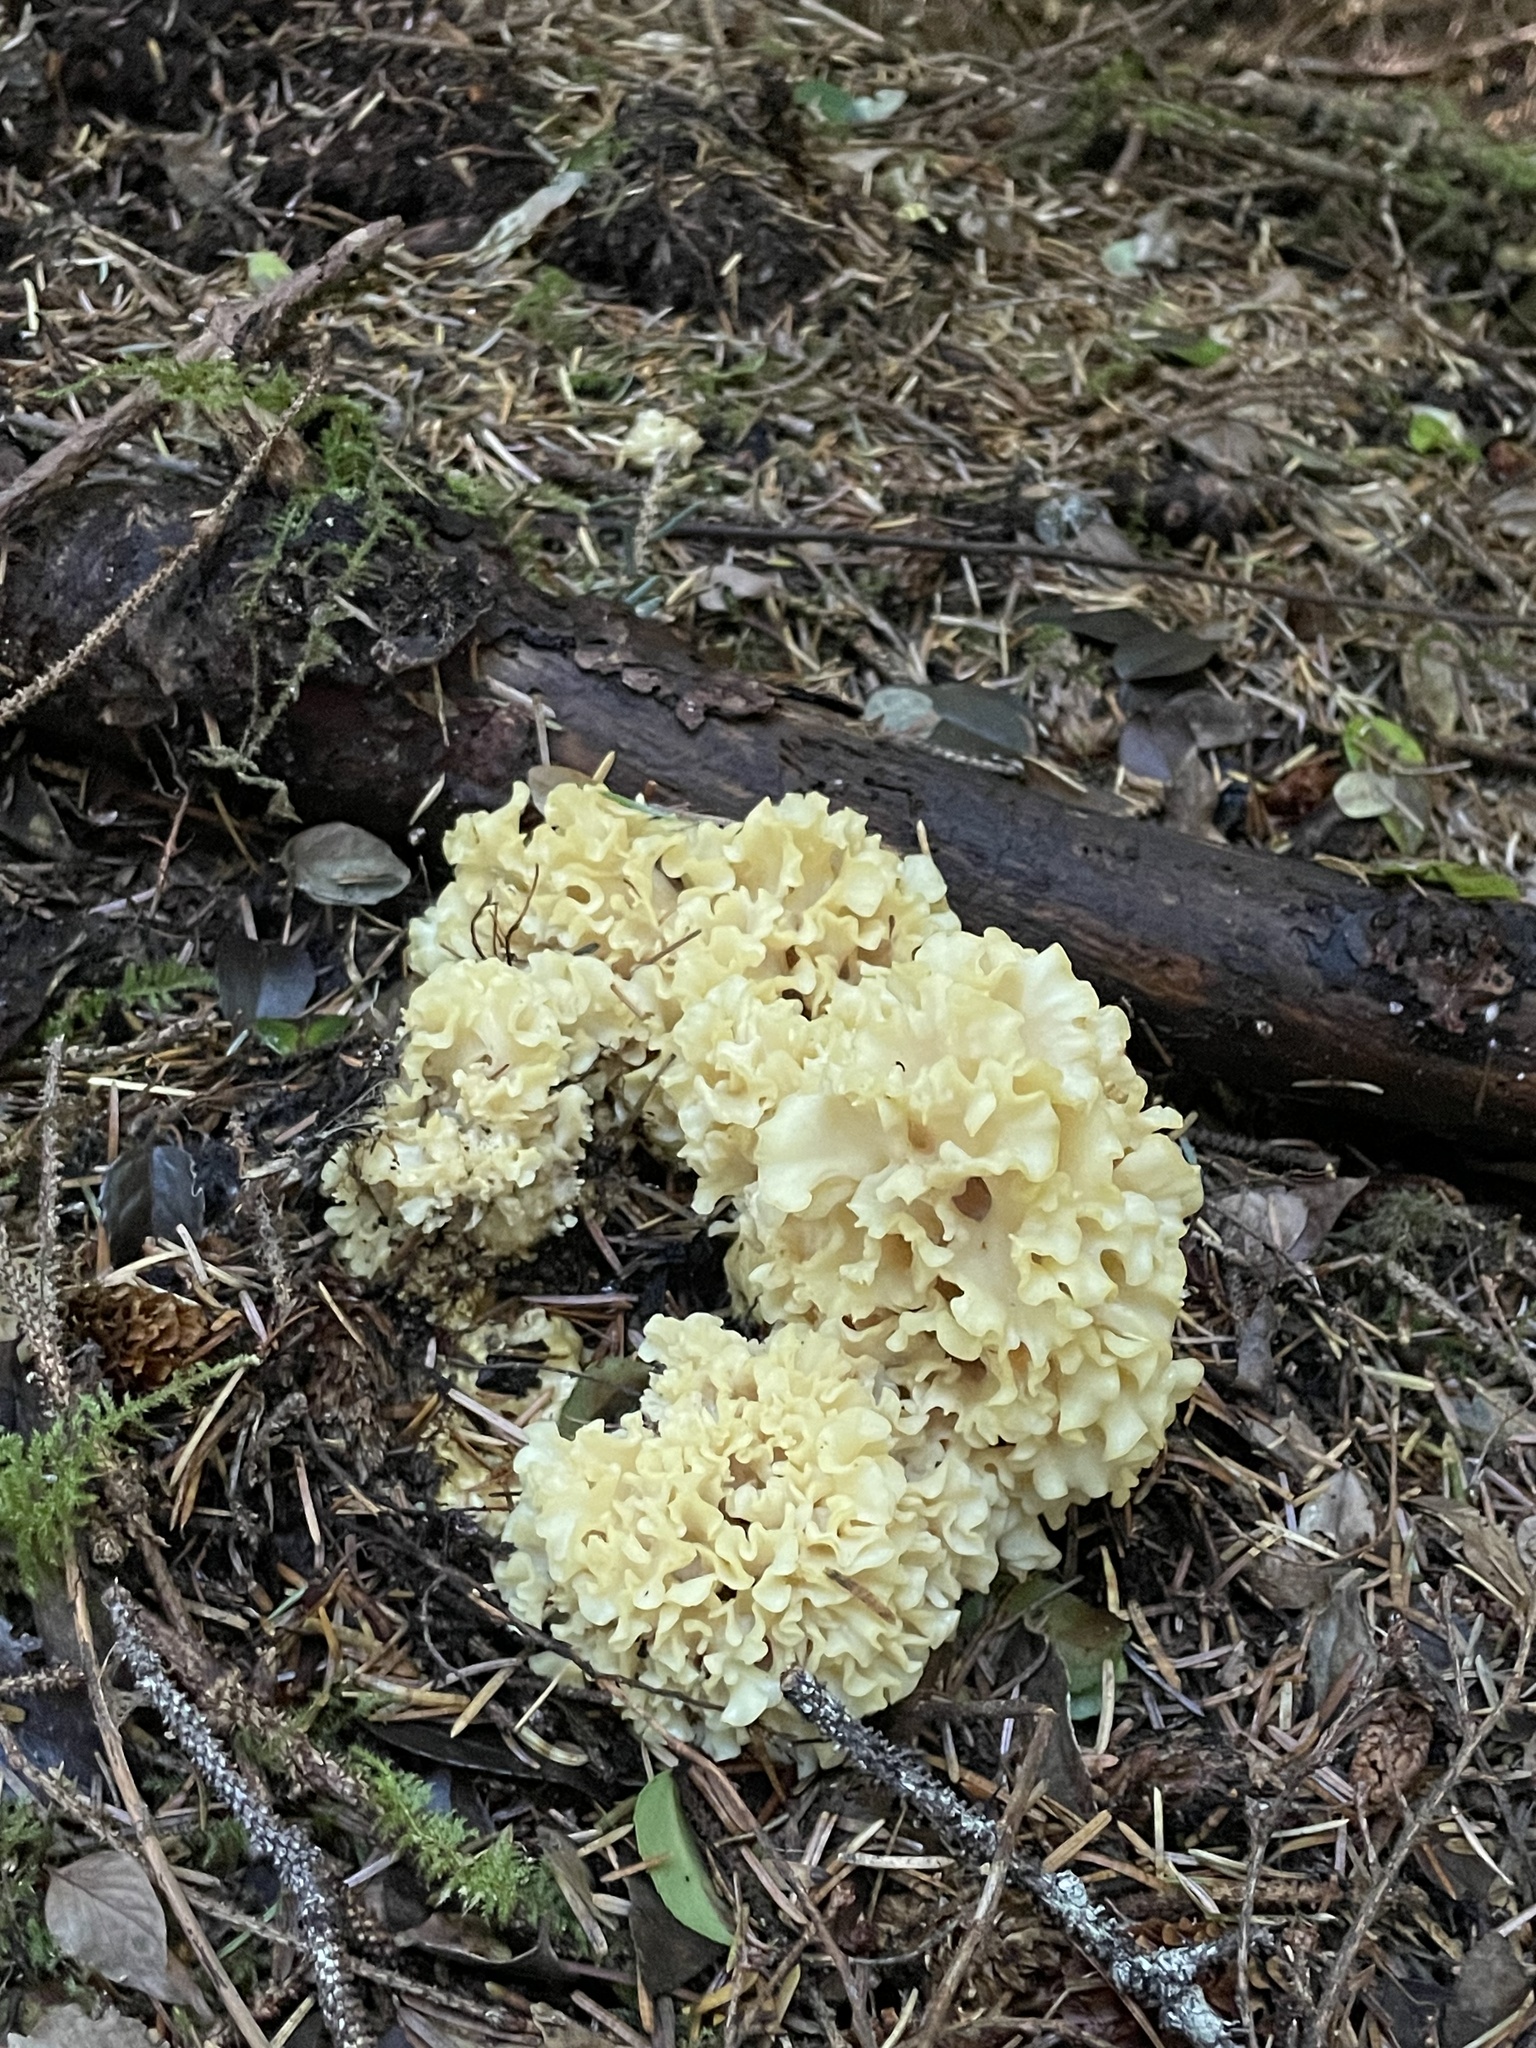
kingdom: Fungi
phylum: Basidiomycota
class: Agaricomycetes
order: Polyporales
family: Sparassidaceae
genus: Sparassis
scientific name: Sparassis radicata
